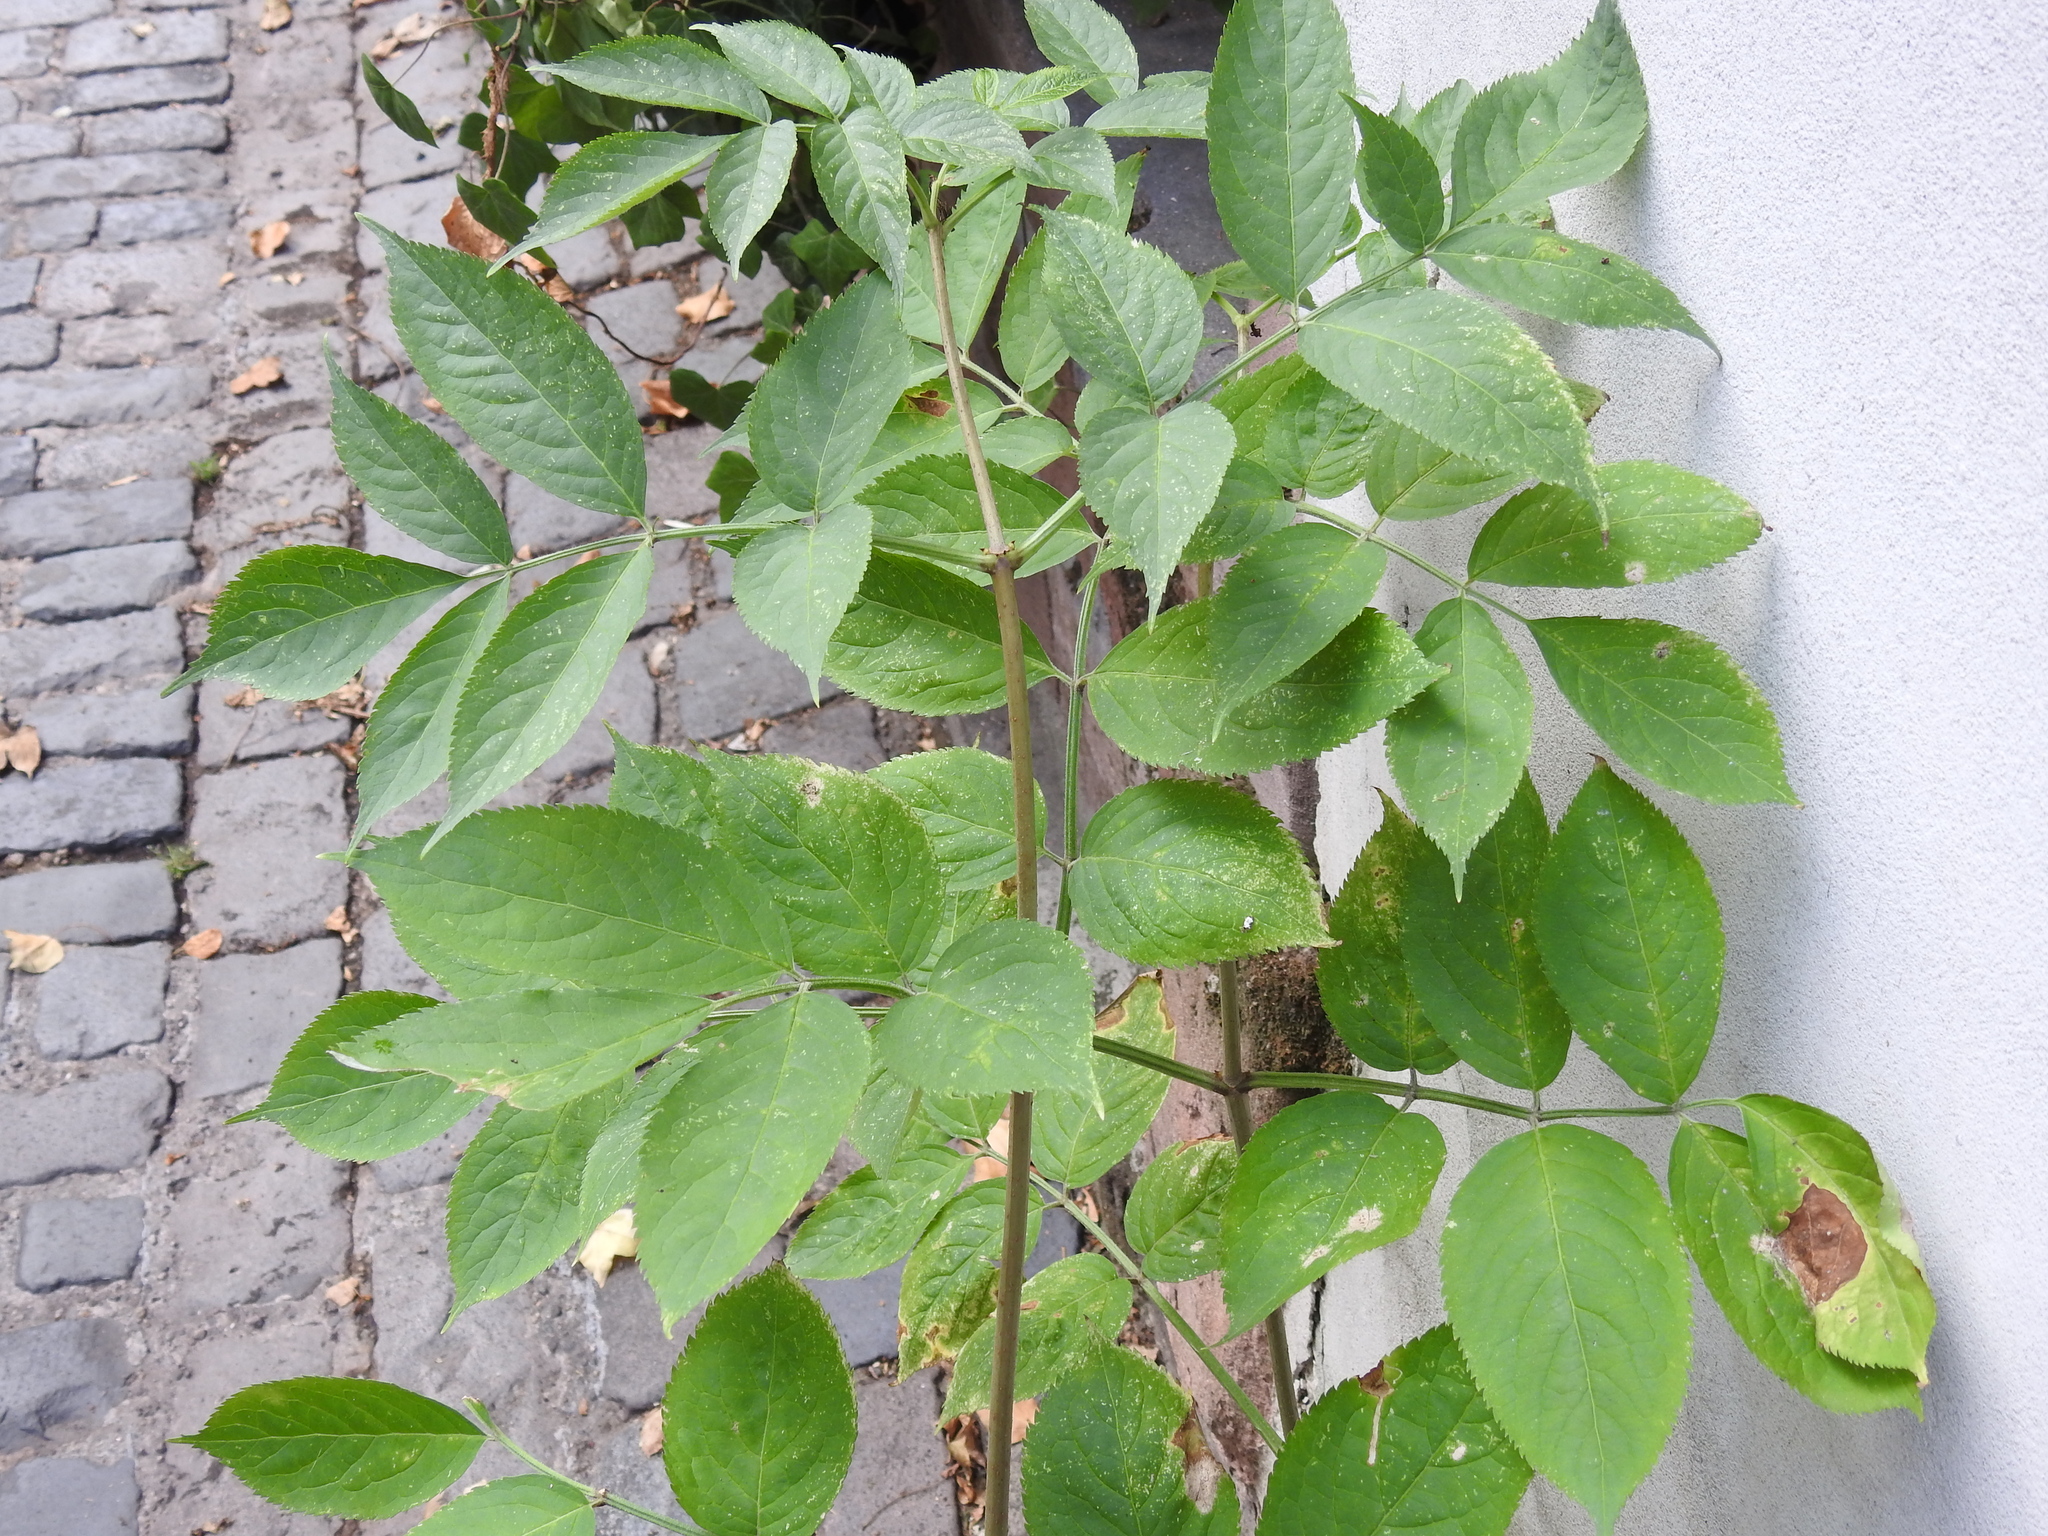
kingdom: Plantae
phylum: Tracheophyta
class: Magnoliopsida
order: Dipsacales
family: Viburnaceae
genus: Sambucus
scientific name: Sambucus nigra
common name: Elder
